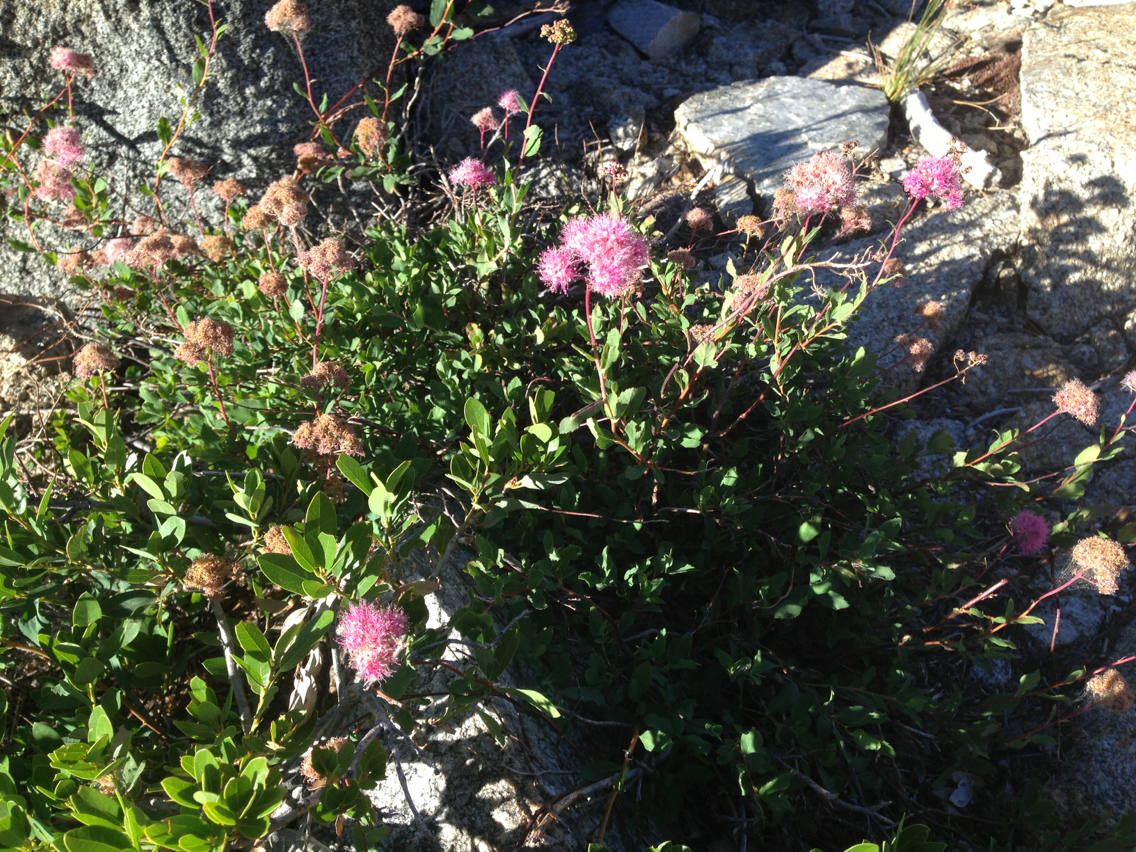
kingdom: Plantae
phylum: Tracheophyta
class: Magnoliopsida
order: Rosales
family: Rosaceae
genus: Spiraea
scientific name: Spiraea splendens
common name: Subalpine meadowsweet
